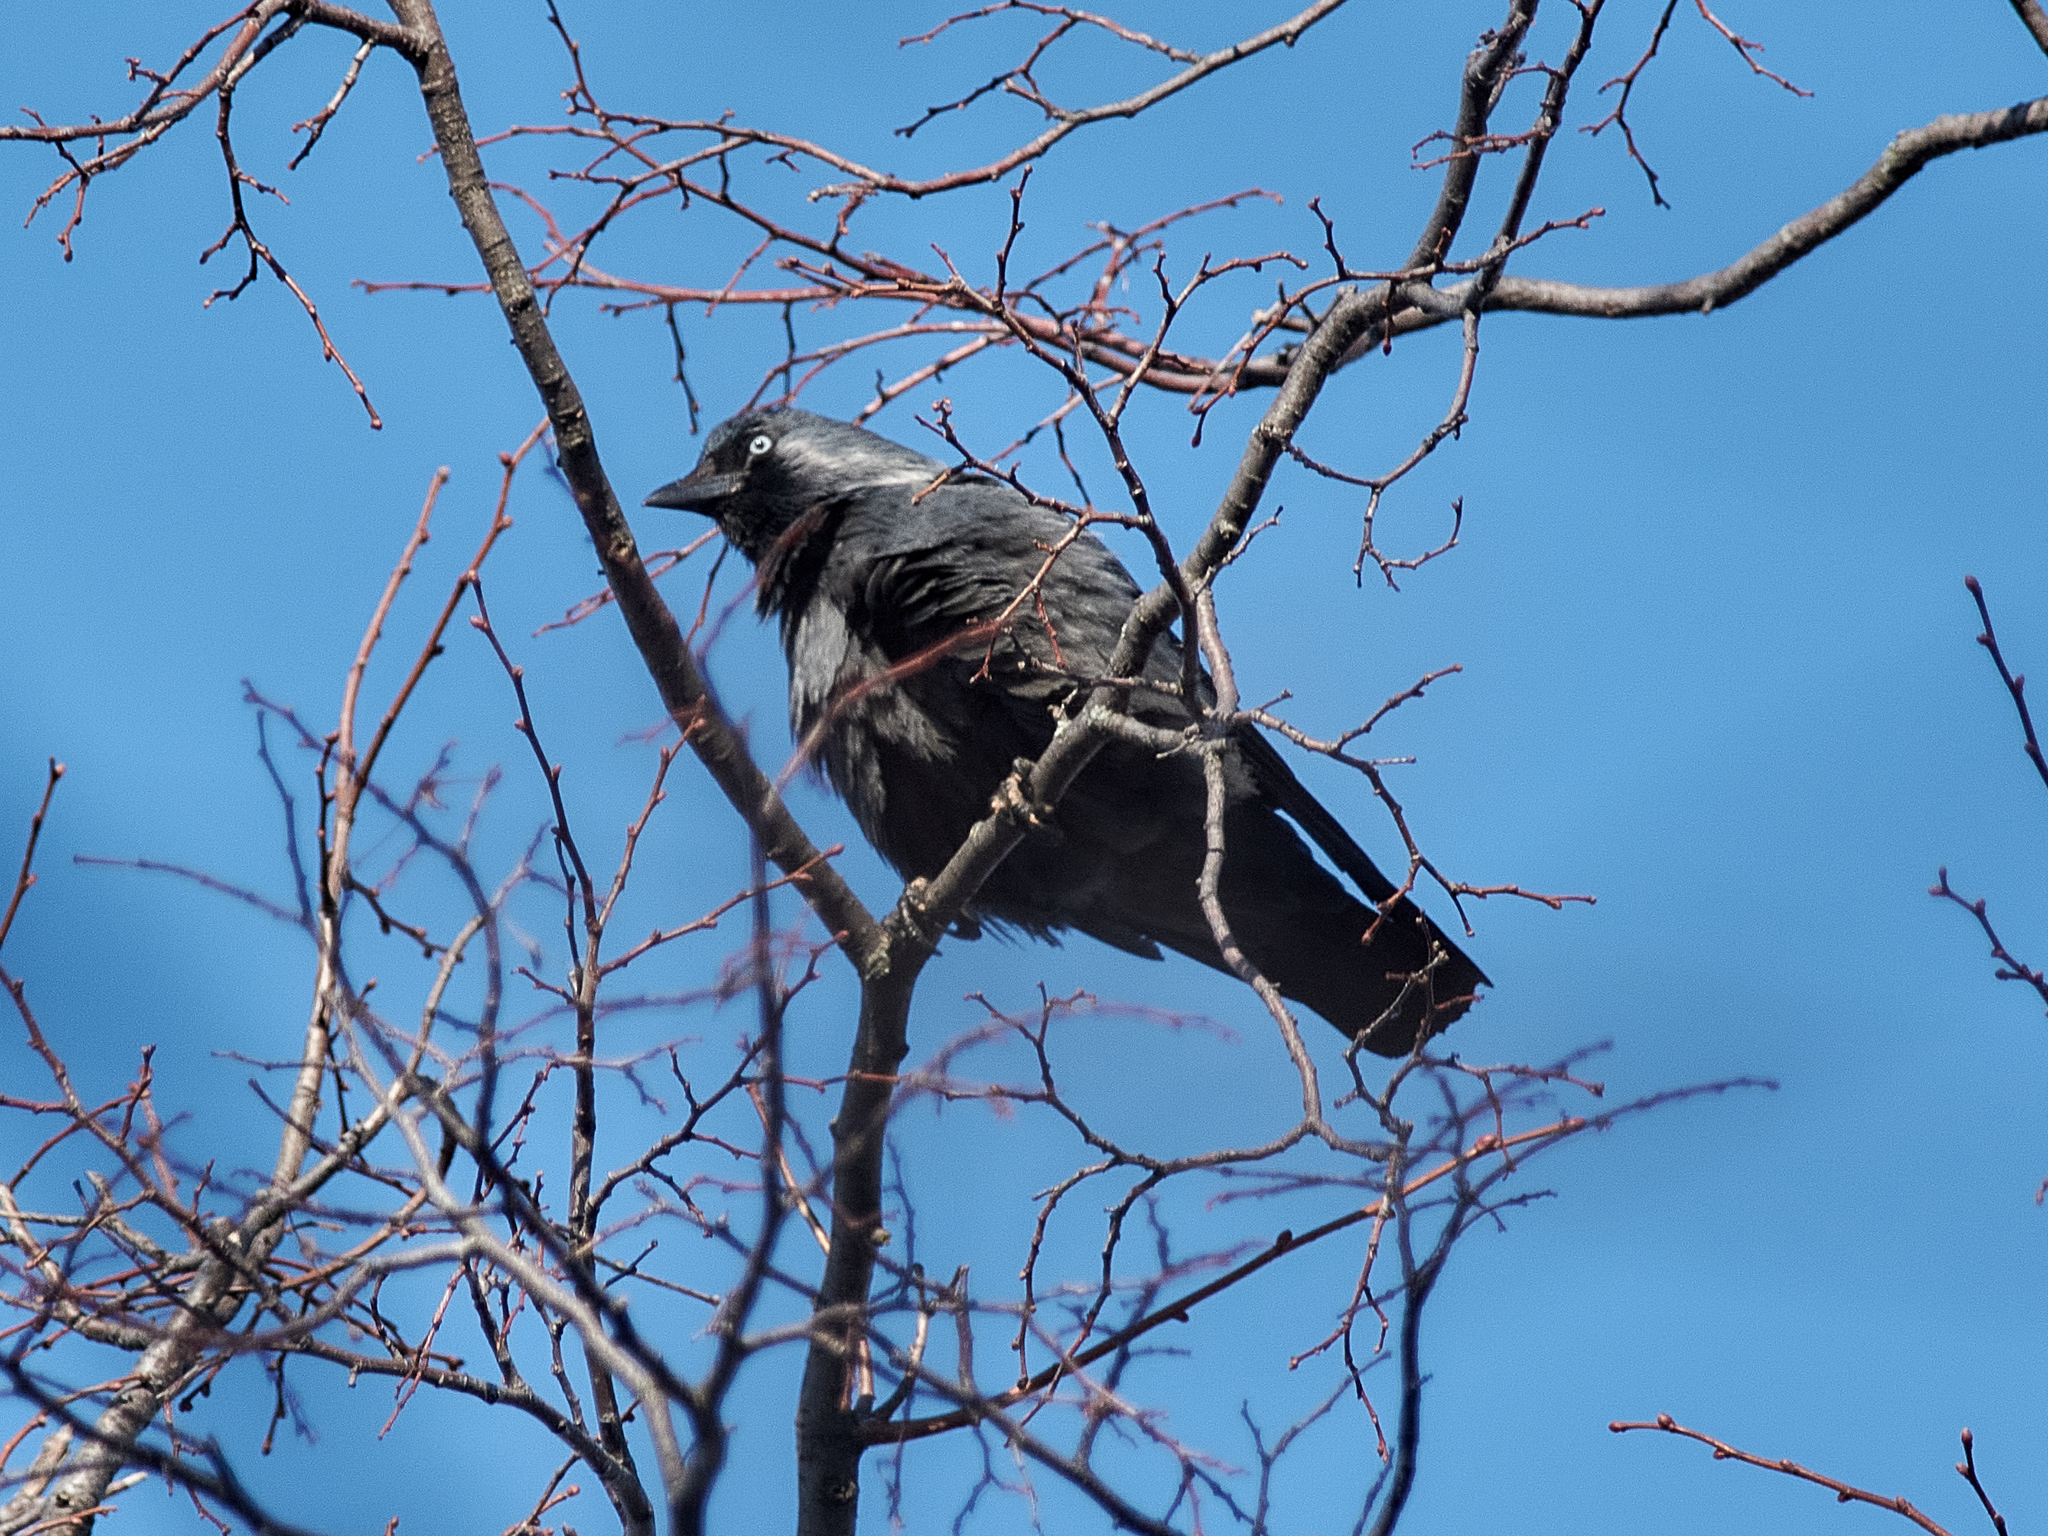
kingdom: Animalia
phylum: Chordata
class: Aves
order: Passeriformes
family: Corvidae
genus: Coloeus
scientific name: Coloeus monedula
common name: Western jackdaw
